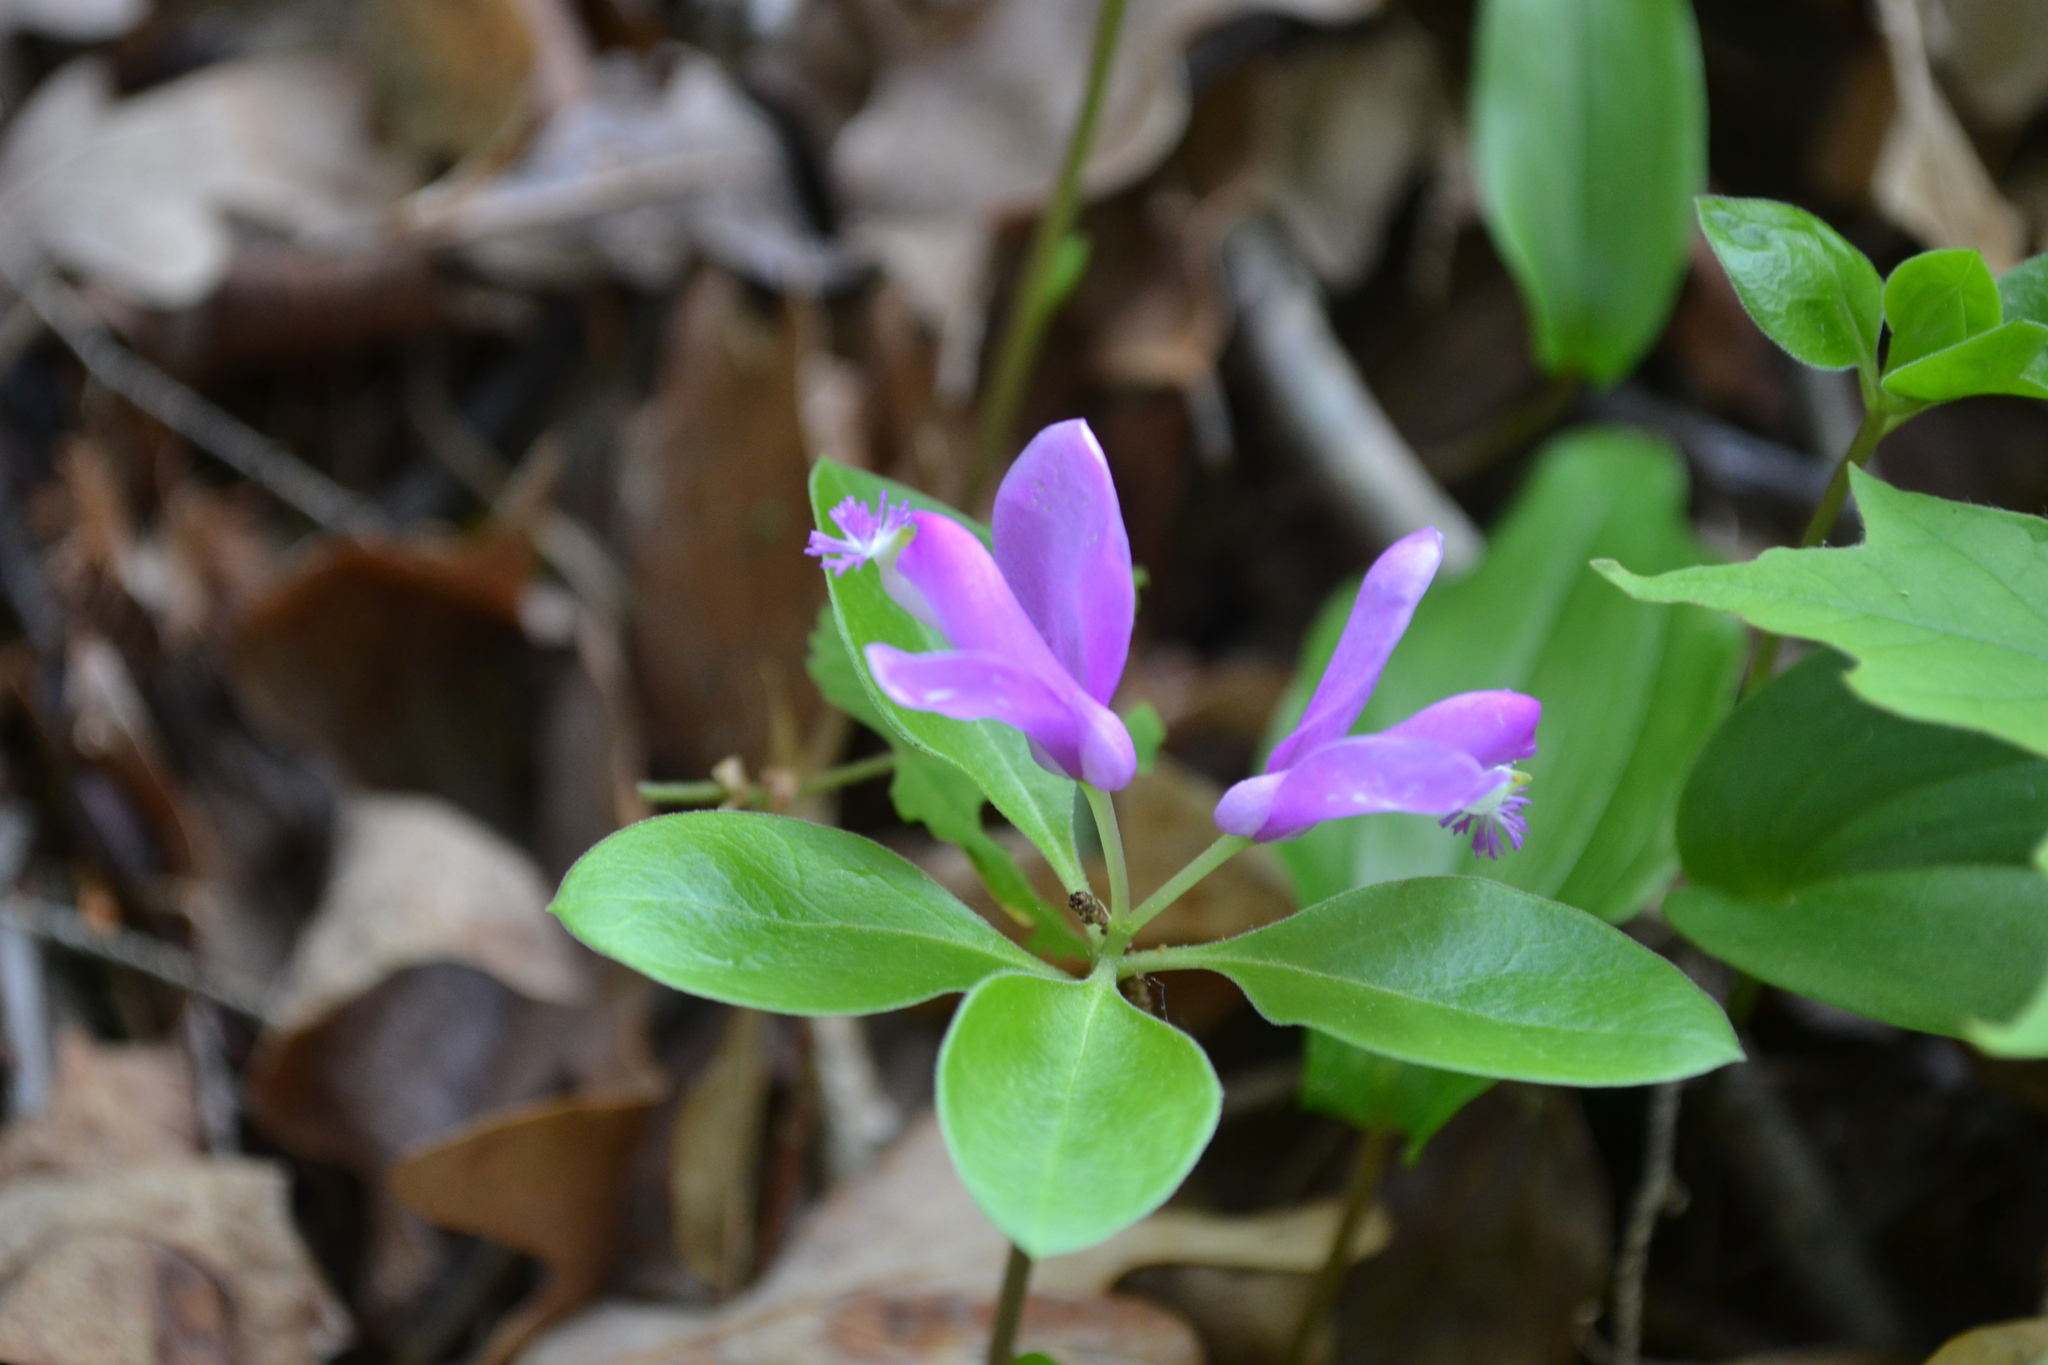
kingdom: Plantae
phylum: Tracheophyta
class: Magnoliopsida
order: Fabales
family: Polygalaceae
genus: Polygaloides
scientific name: Polygaloides paucifolia
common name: Bird-on-the-wing
